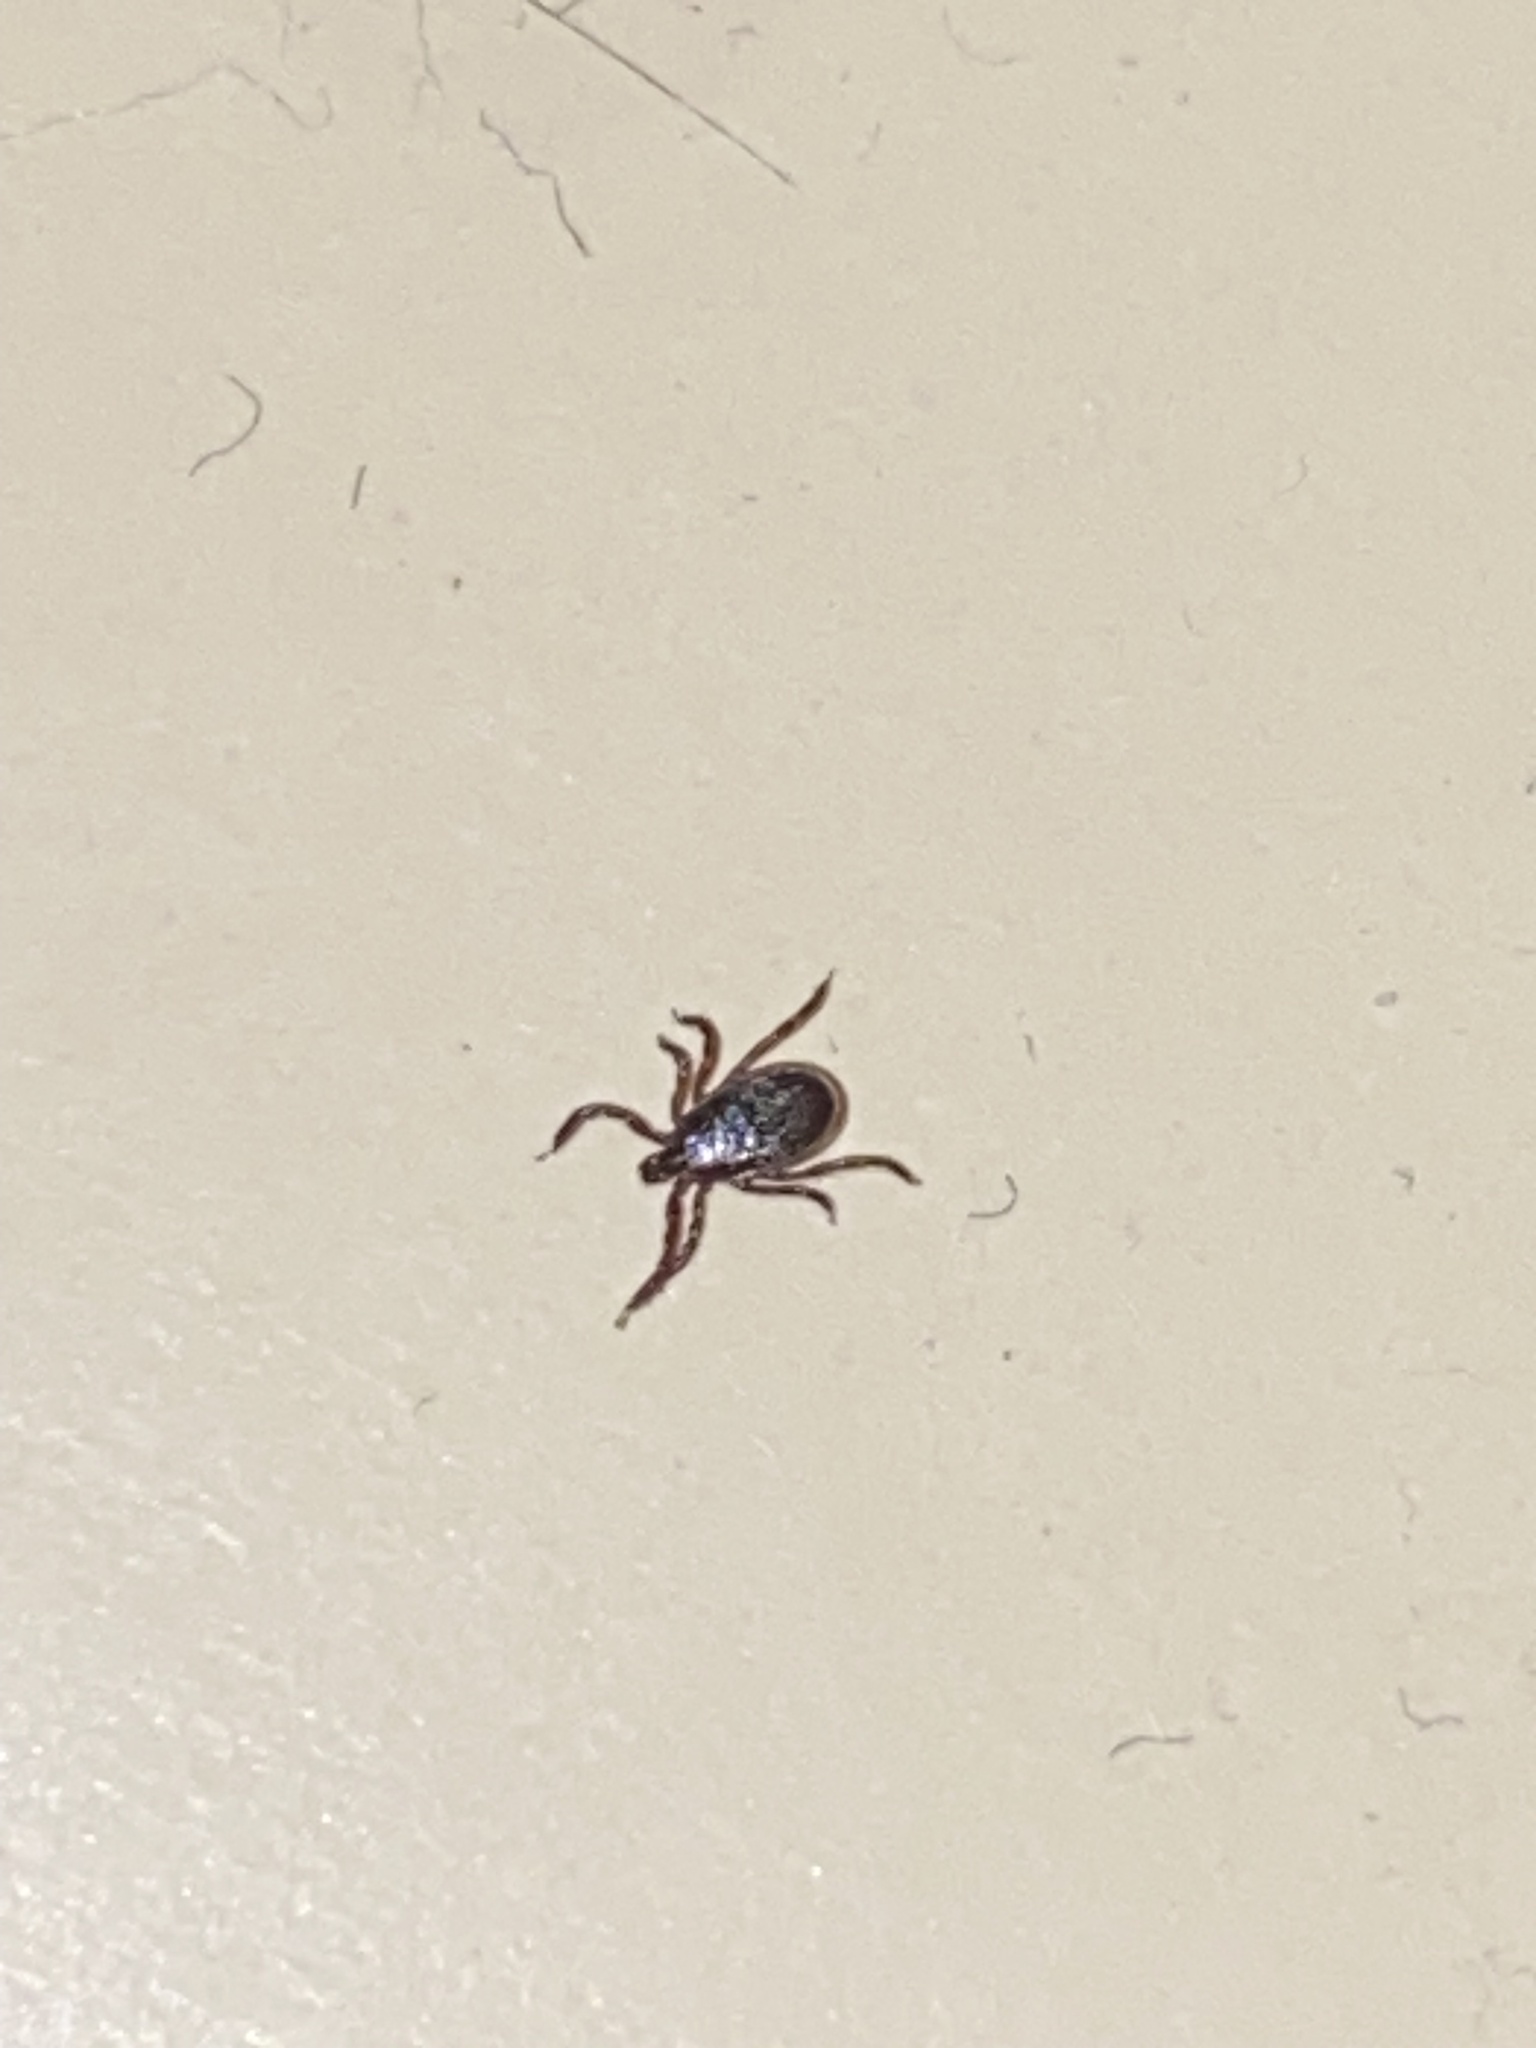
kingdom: Animalia
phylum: Arthropoda
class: Arachnida
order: Ixodida
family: Ixodidae
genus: Ixodes
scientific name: Ixodes scapularis
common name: Black legged tick
